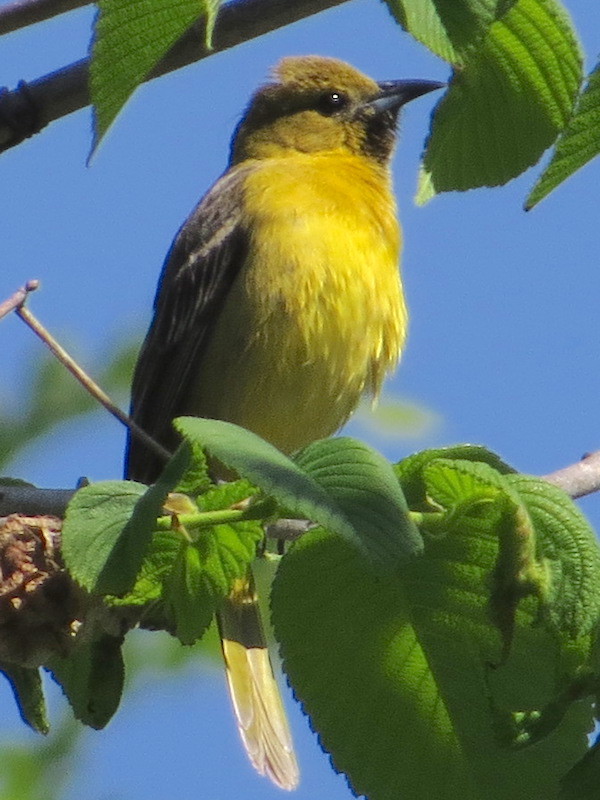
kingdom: Animalia
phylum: Chordata
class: Aves
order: Passeriformes
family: Icteridae
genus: Icterus
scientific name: Icterus spurius
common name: Orchard oriole
